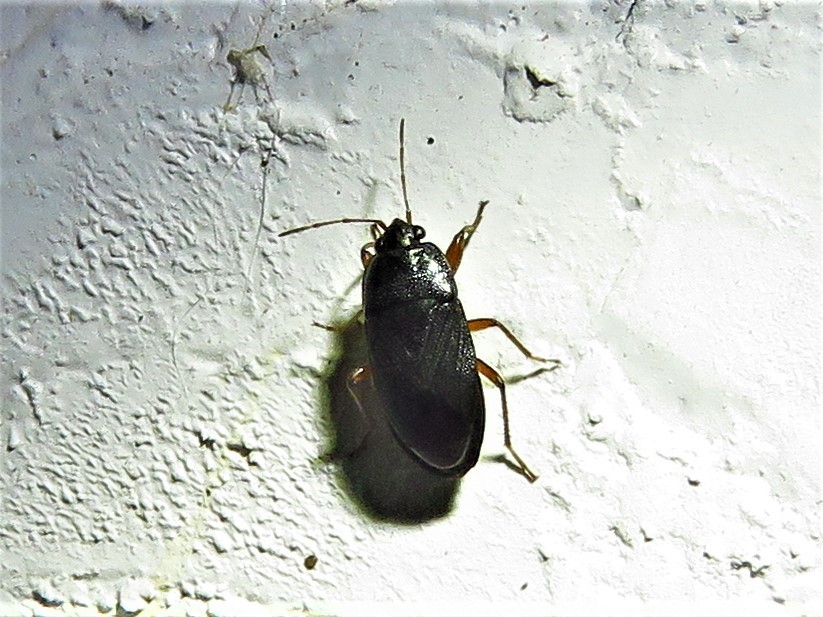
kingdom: Animalia
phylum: Arthropoda
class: Insecta
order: Hemiptera
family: Rhyparochromidae
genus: Delochilocoris
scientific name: Delochilocoris illuminatus
